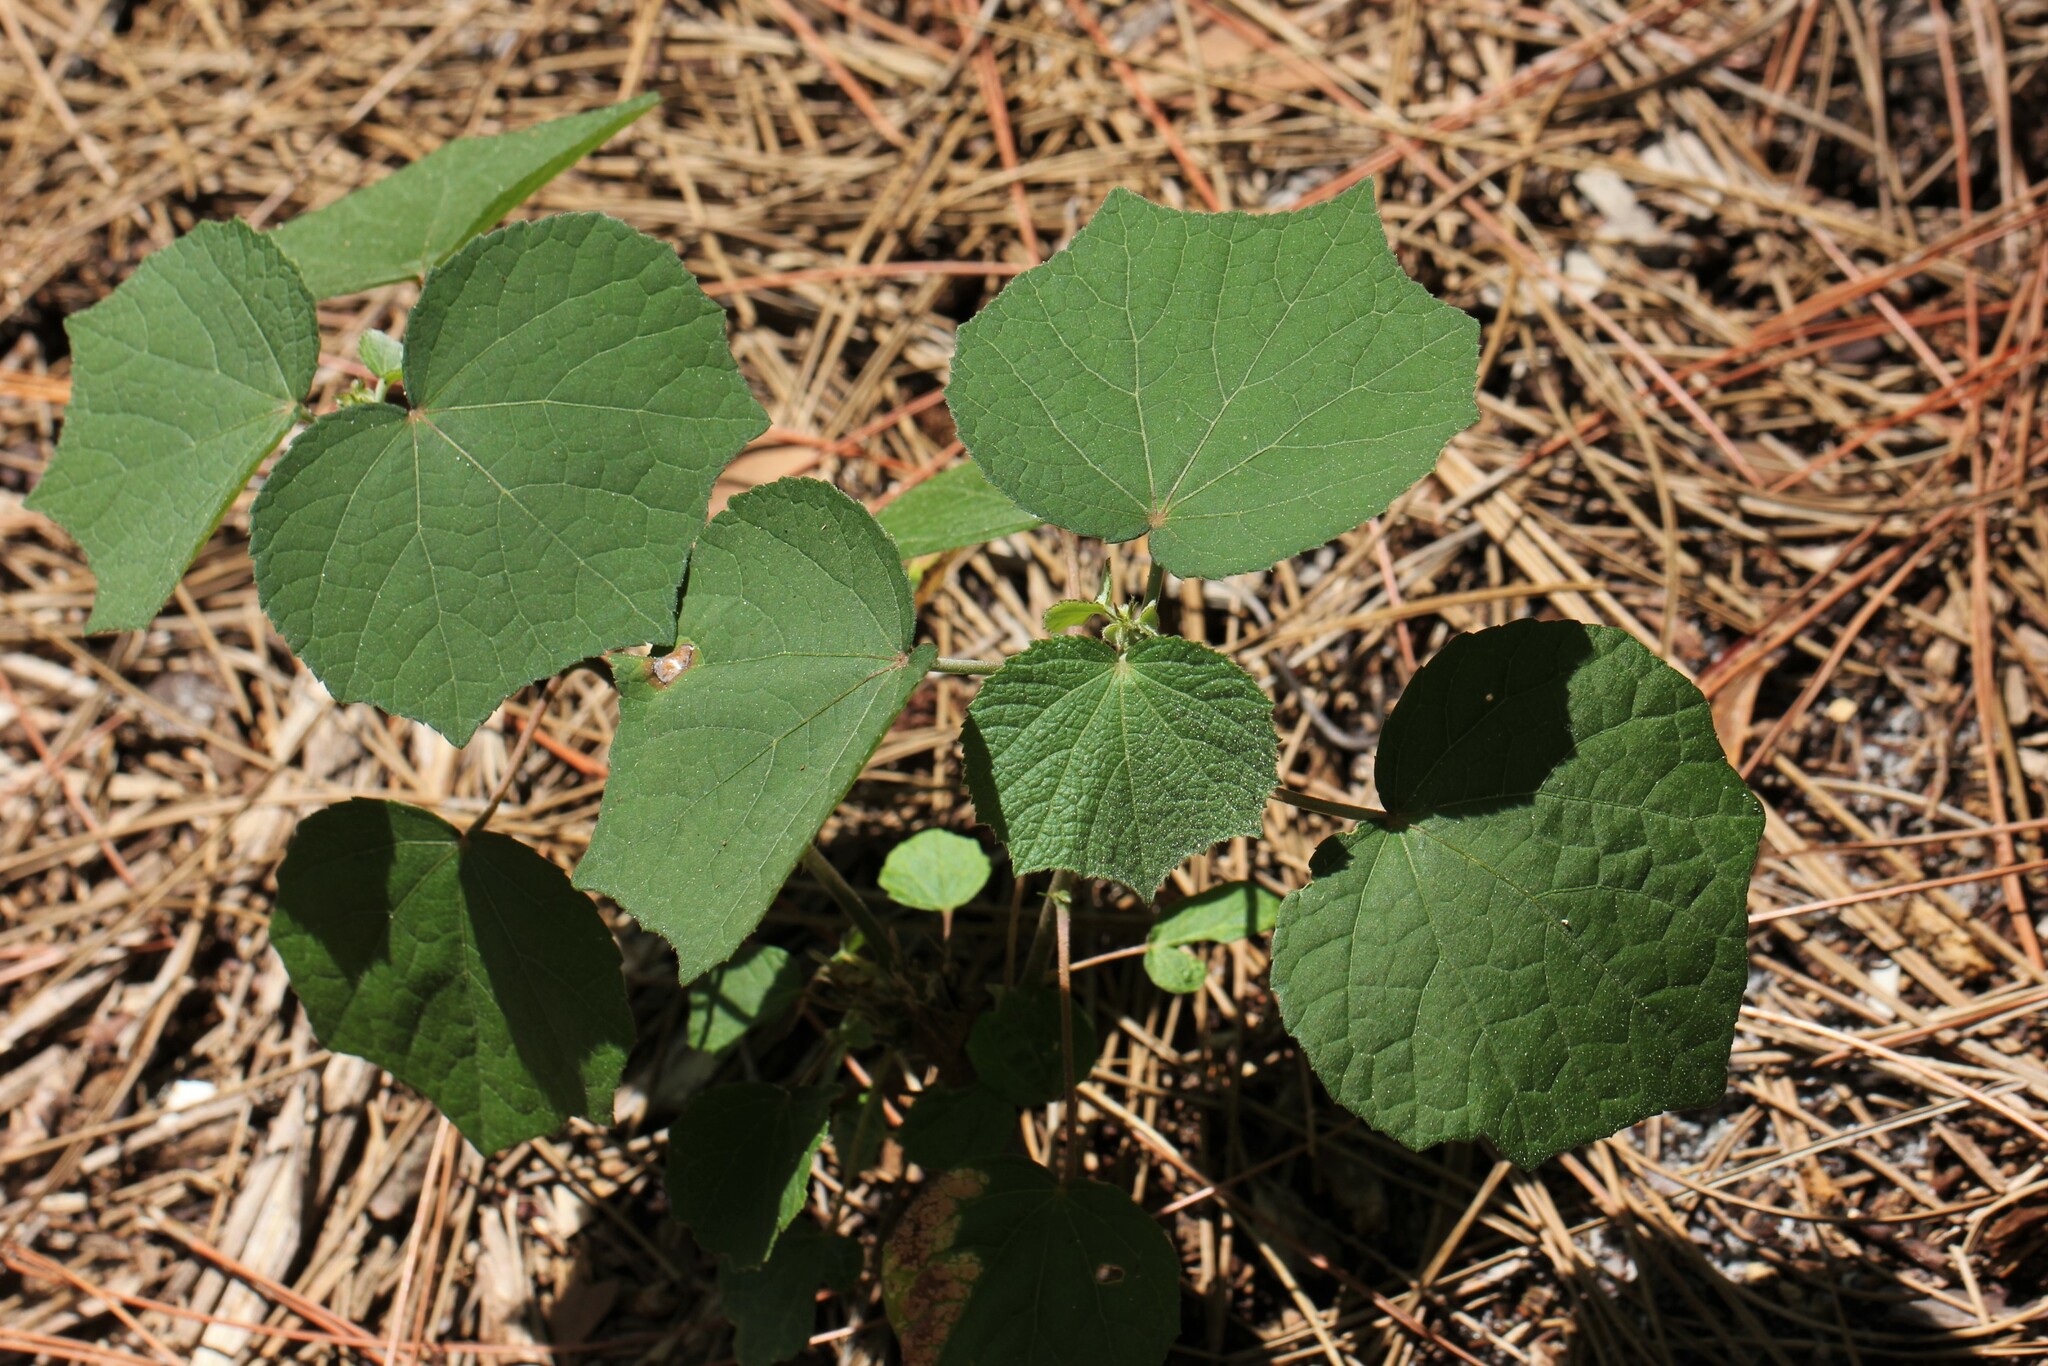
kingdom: Plantae
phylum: Tracheophyta
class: Magnoliopsida
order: Malvales
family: Malvaceae
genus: Urena
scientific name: Urena lobata
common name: Caesarweed
